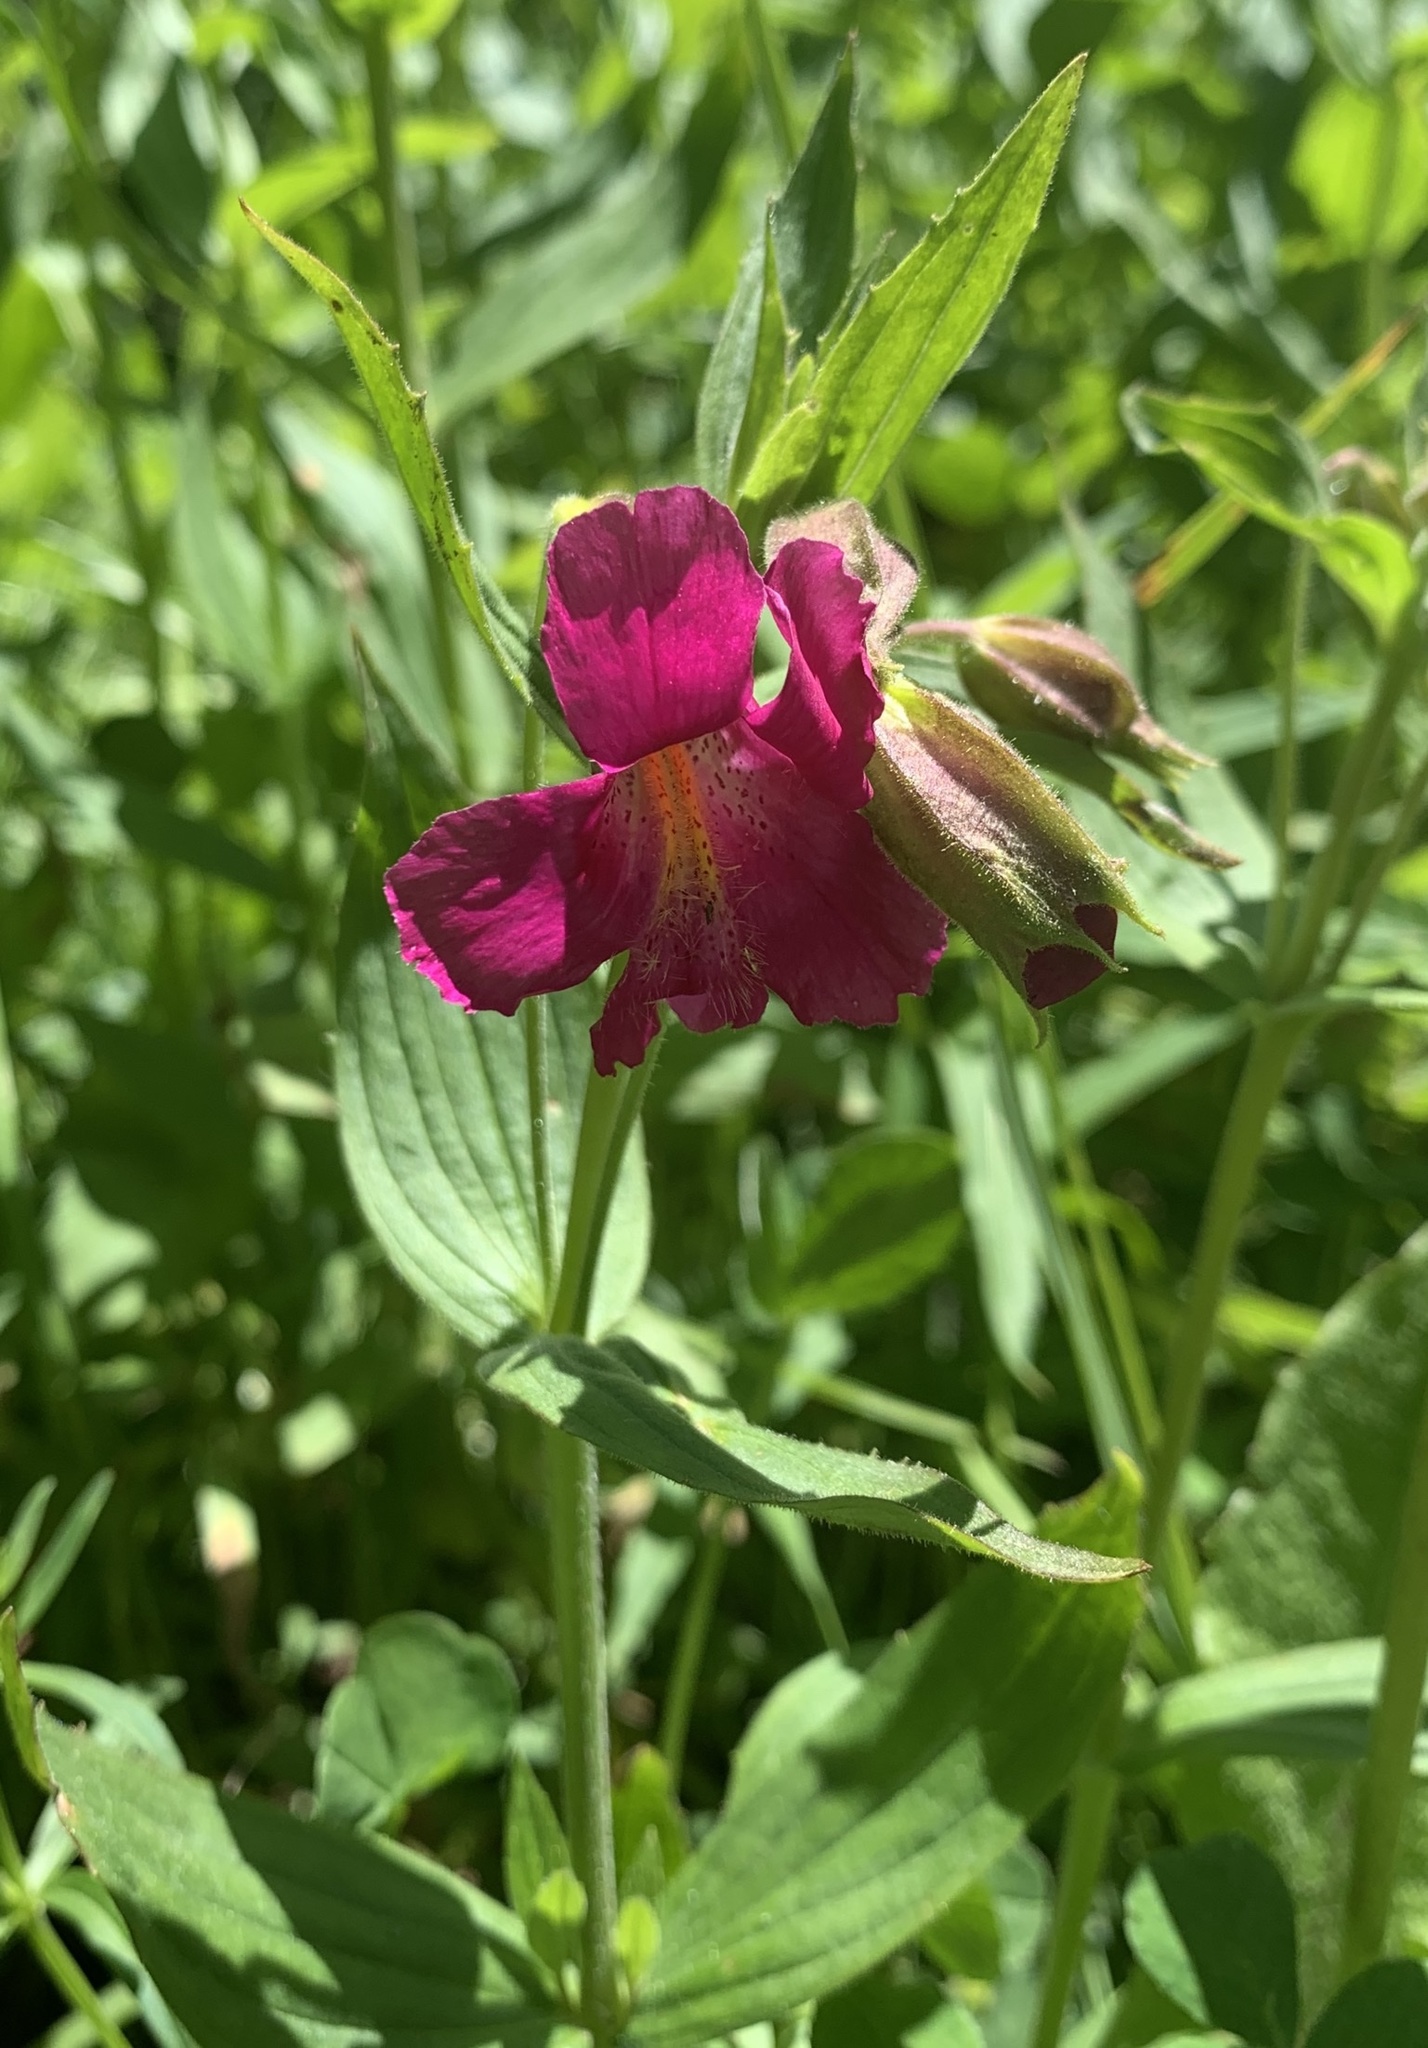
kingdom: Plantae
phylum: Tracheophyta
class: Magnoliopsida
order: Lamiales
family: Phrymaceae
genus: Erythranthe
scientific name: Erythranthe lewisii
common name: Lewis's monkey-flower
